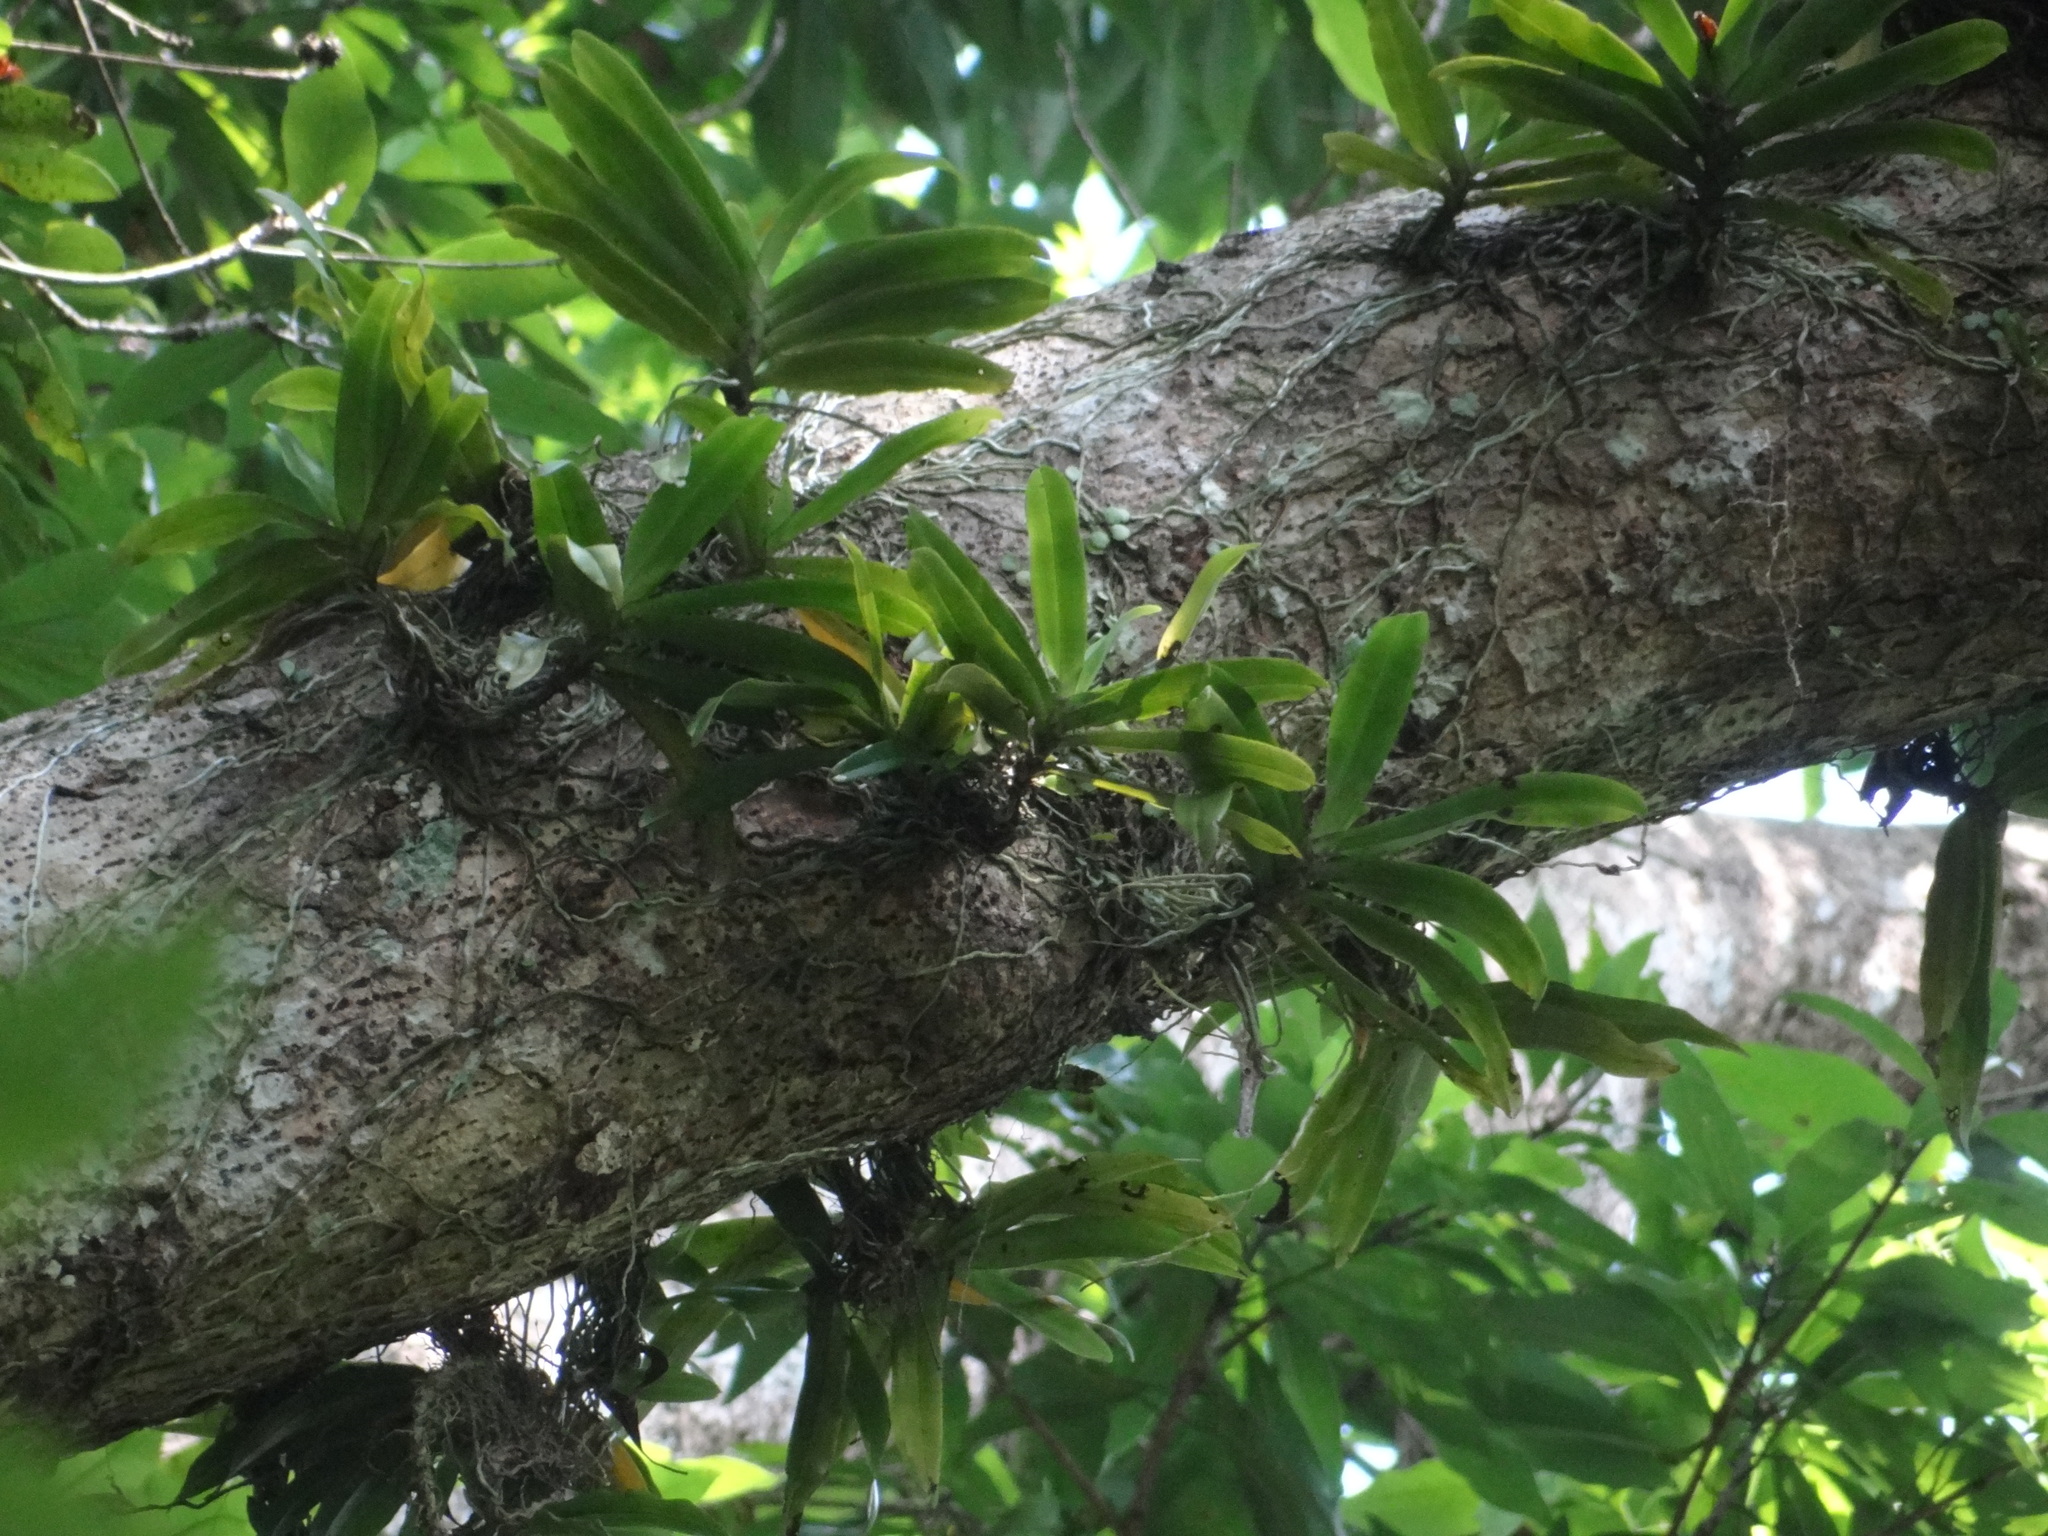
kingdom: Plantae
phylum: Tracheophyta
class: Liliopsida
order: Asparagales
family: Orchidaceae
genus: Pomatocalpa
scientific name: Pomatocalpa undulatum
